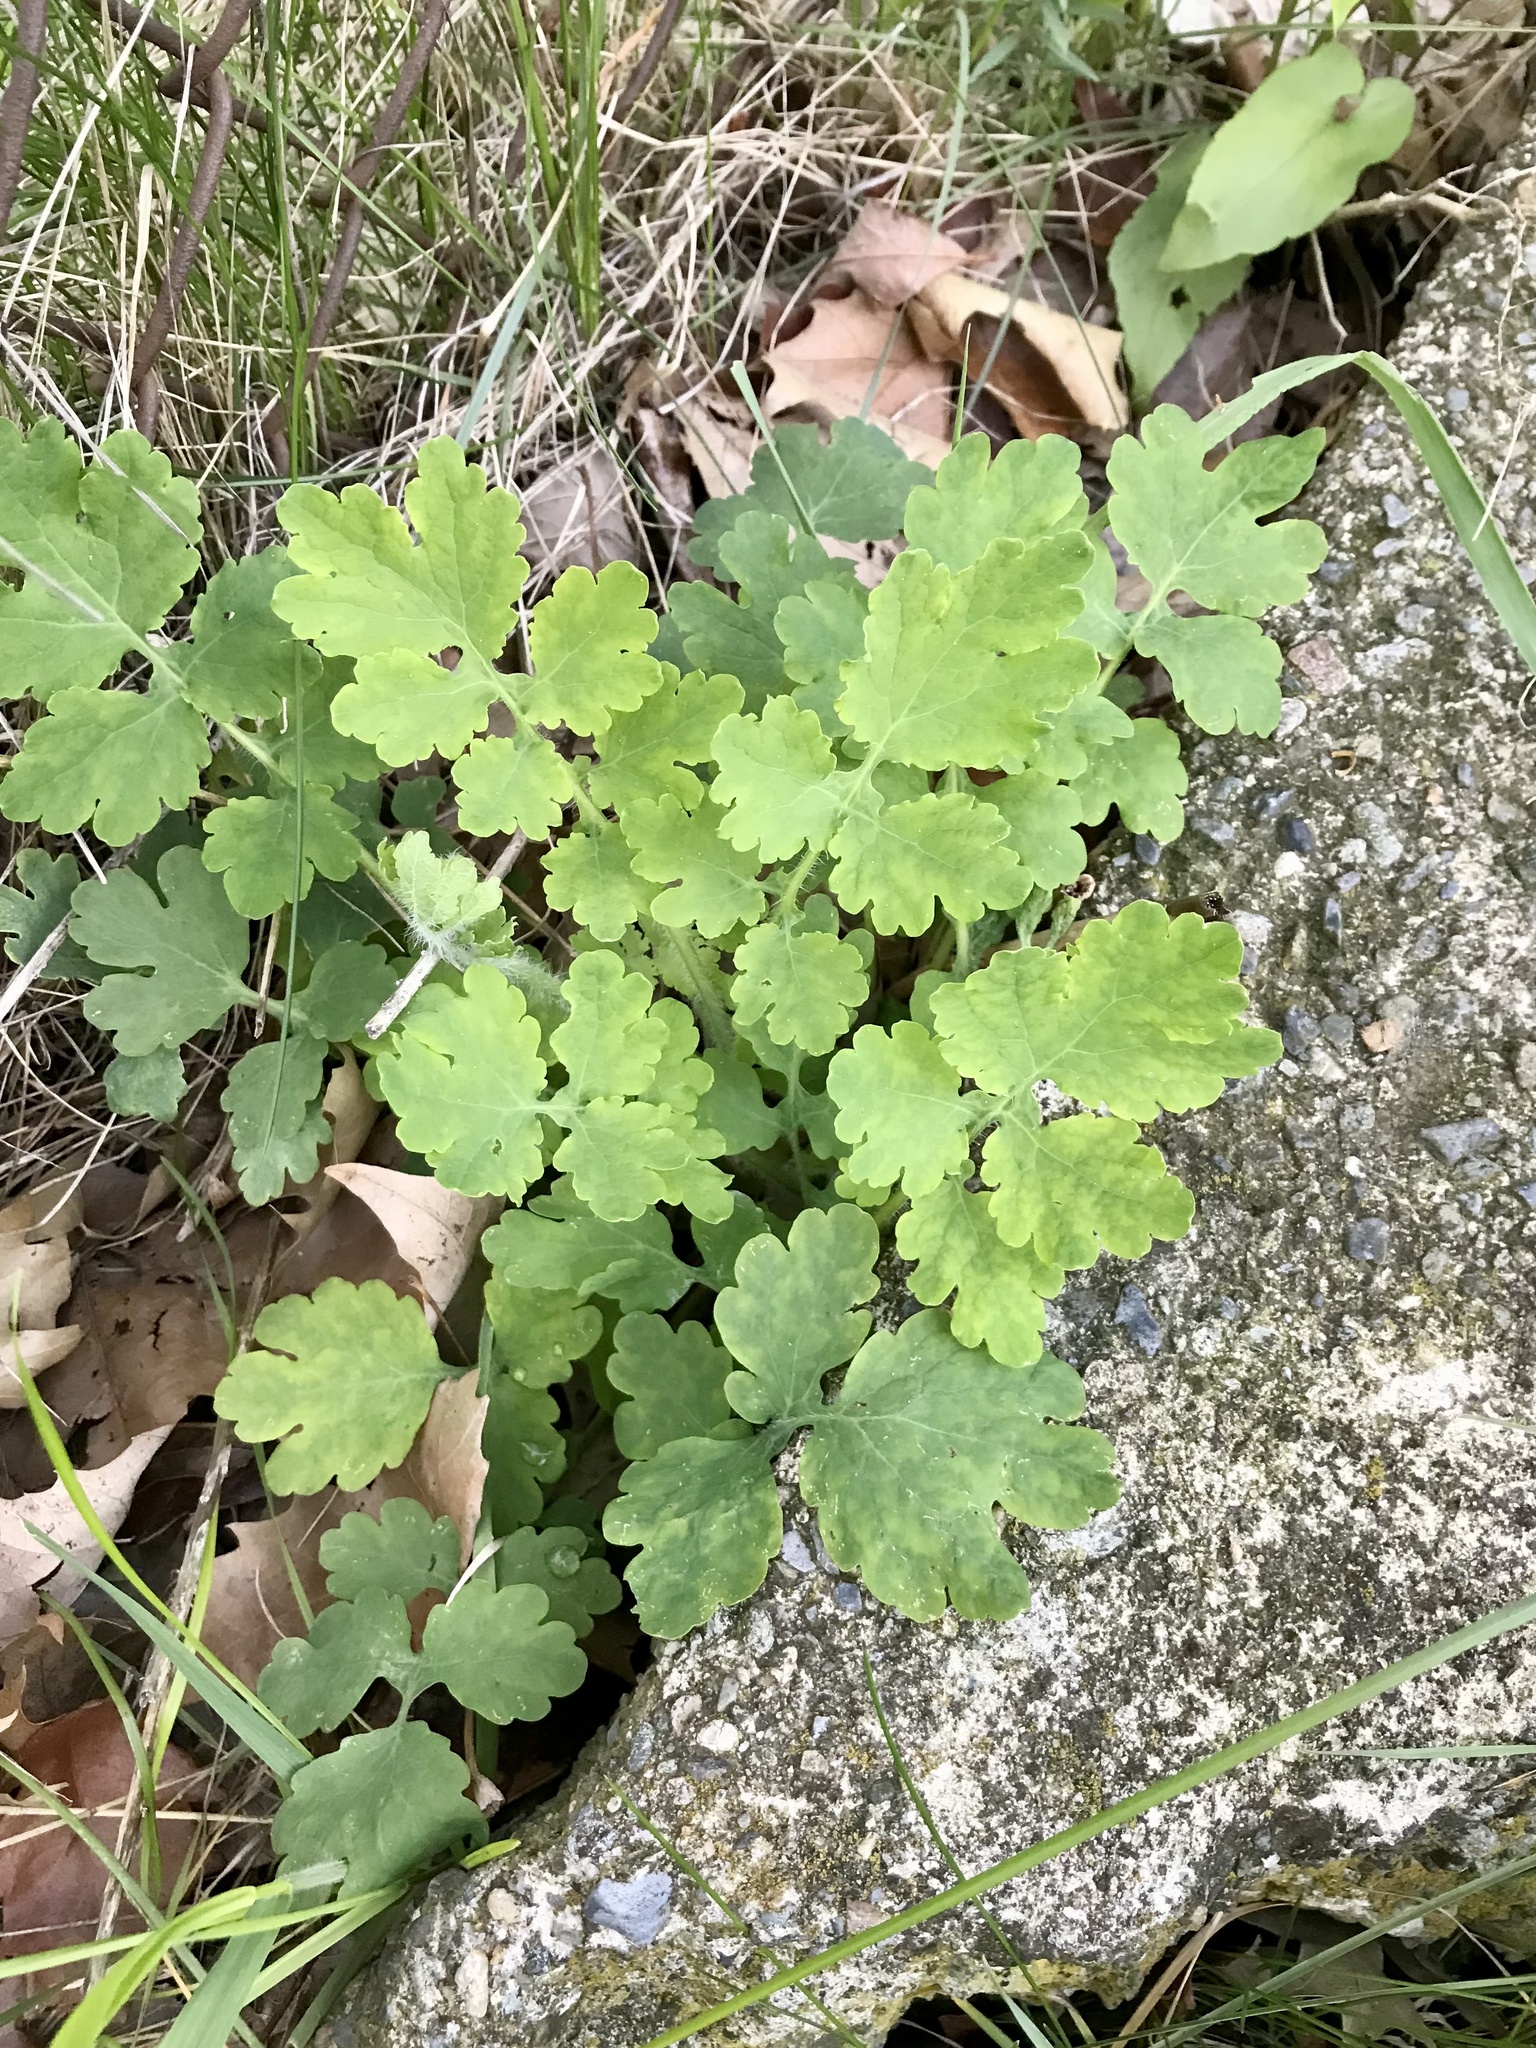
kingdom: Plantae
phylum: Tracheophyta
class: Magnoliopsida
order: Ranunculales
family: Papaveraceae
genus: Chelidonium
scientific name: Chelidonium majus
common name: Greater celandine
